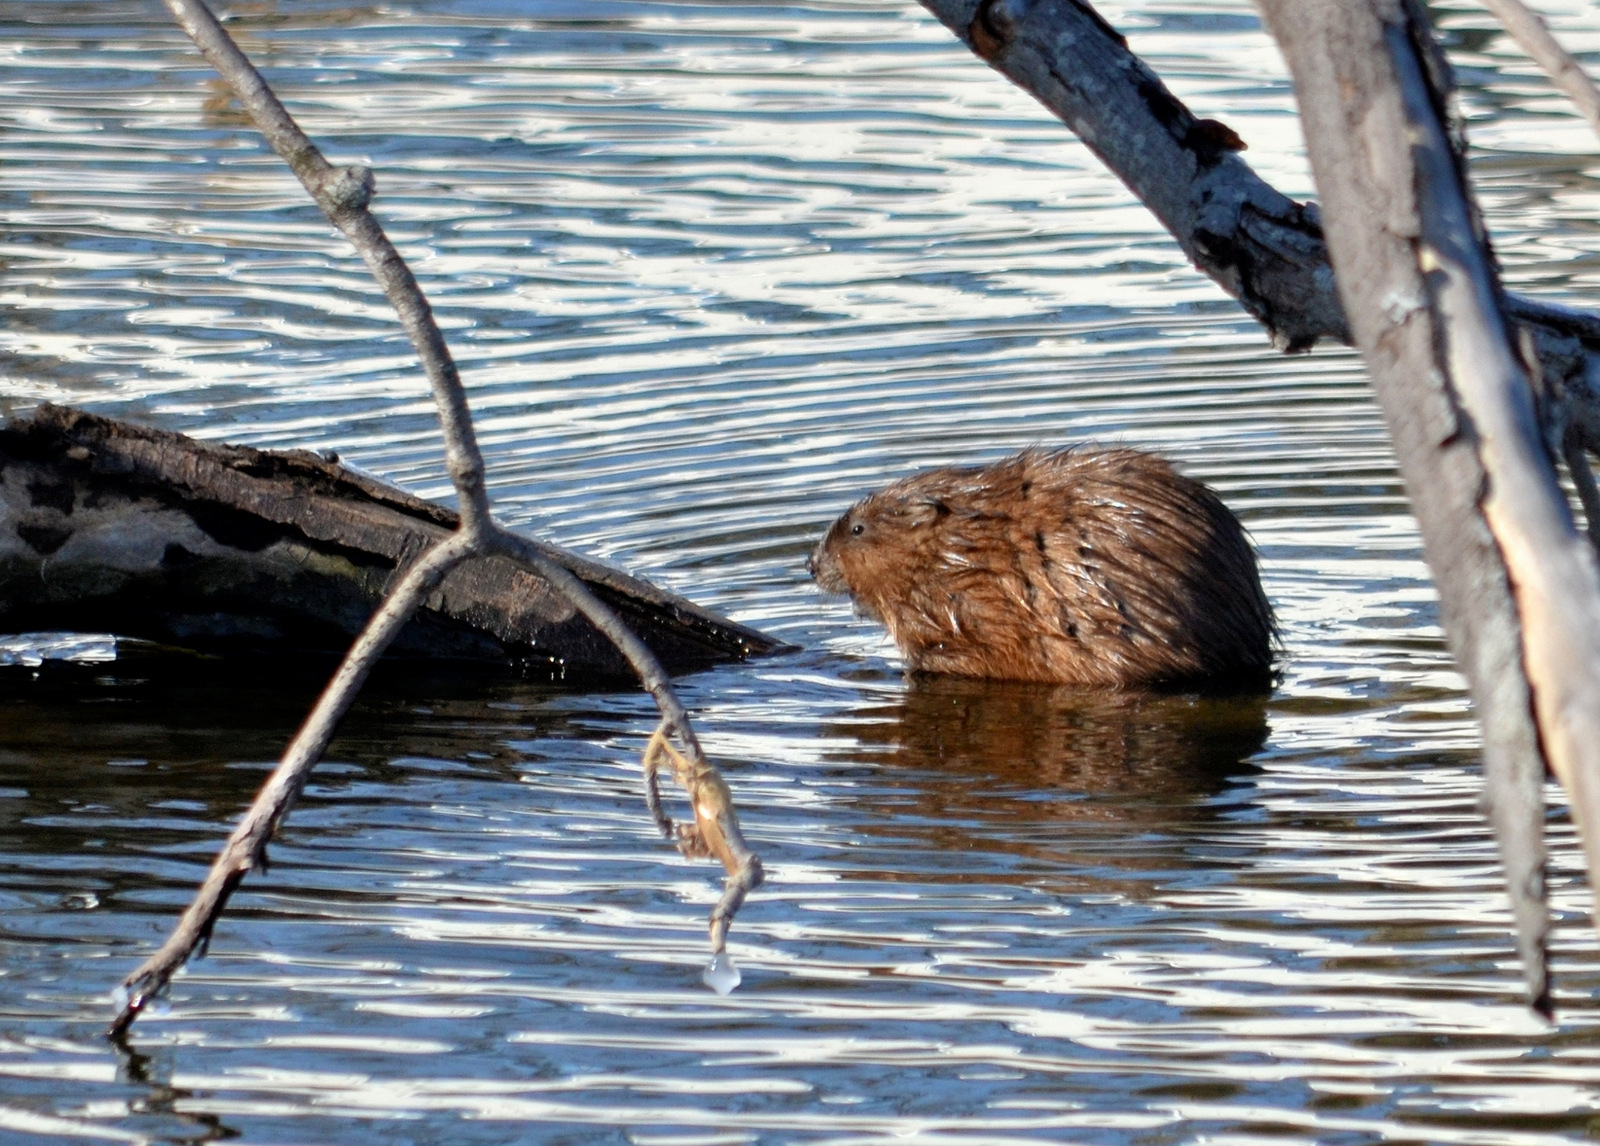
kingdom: Animalia
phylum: Chordata
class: Mammalia
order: Rodentia
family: Cricetidae
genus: Ondatra
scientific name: Ondatra zibethicus
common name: Muskrat
